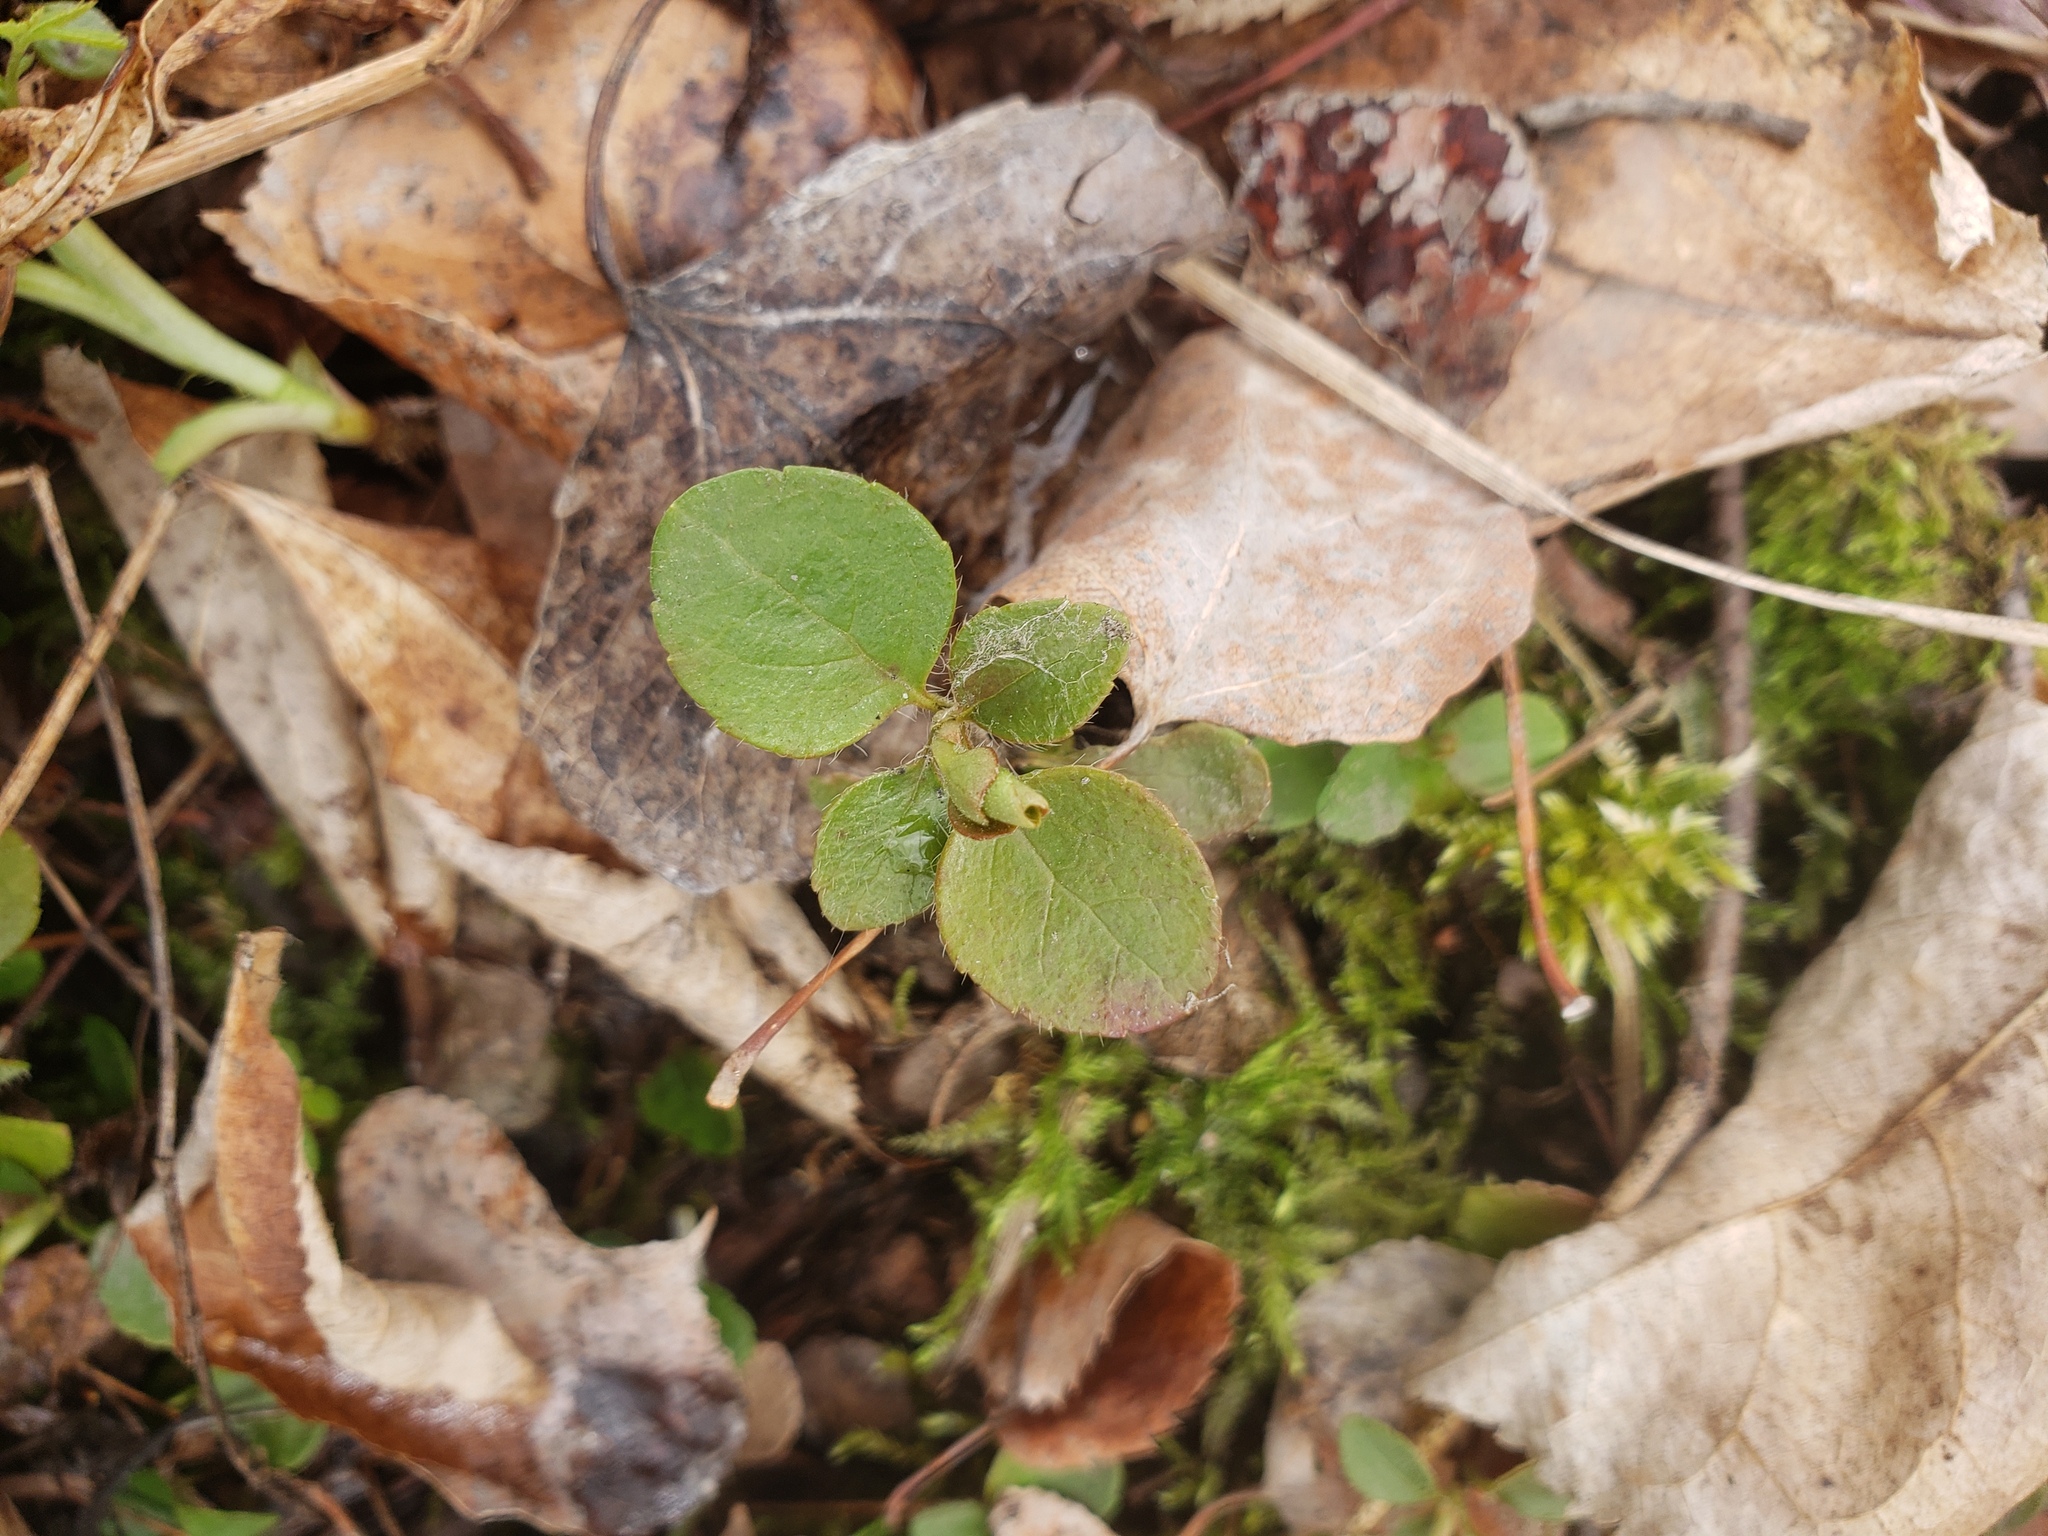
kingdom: Plantae
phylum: Tracheophyta
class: Magnoliopsida
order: Dipsacales
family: Caprifoliaceae
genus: Linnaea
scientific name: Linnaea borealis
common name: Twinflower
